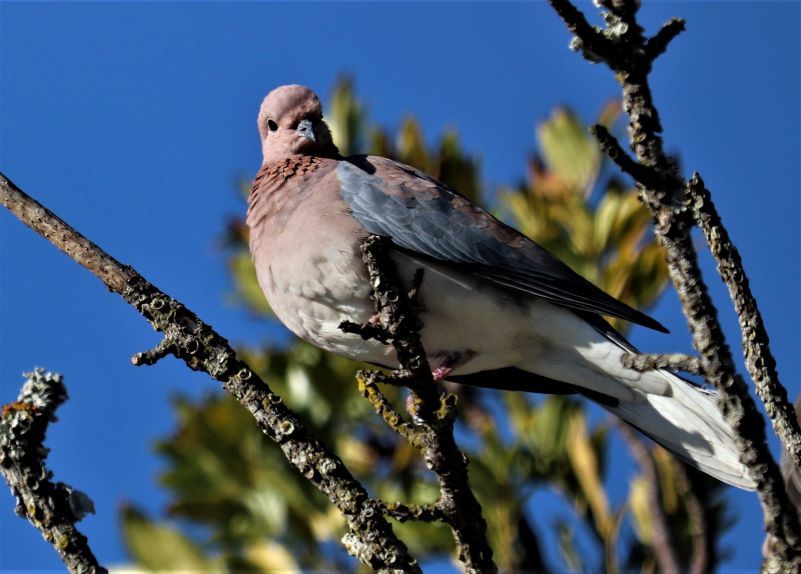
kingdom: Animalia
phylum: Chordata
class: Aves
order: Columbiformes
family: Columbidae
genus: Spilopelia
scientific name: Spilopelia senegalensis
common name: Laughing dove
